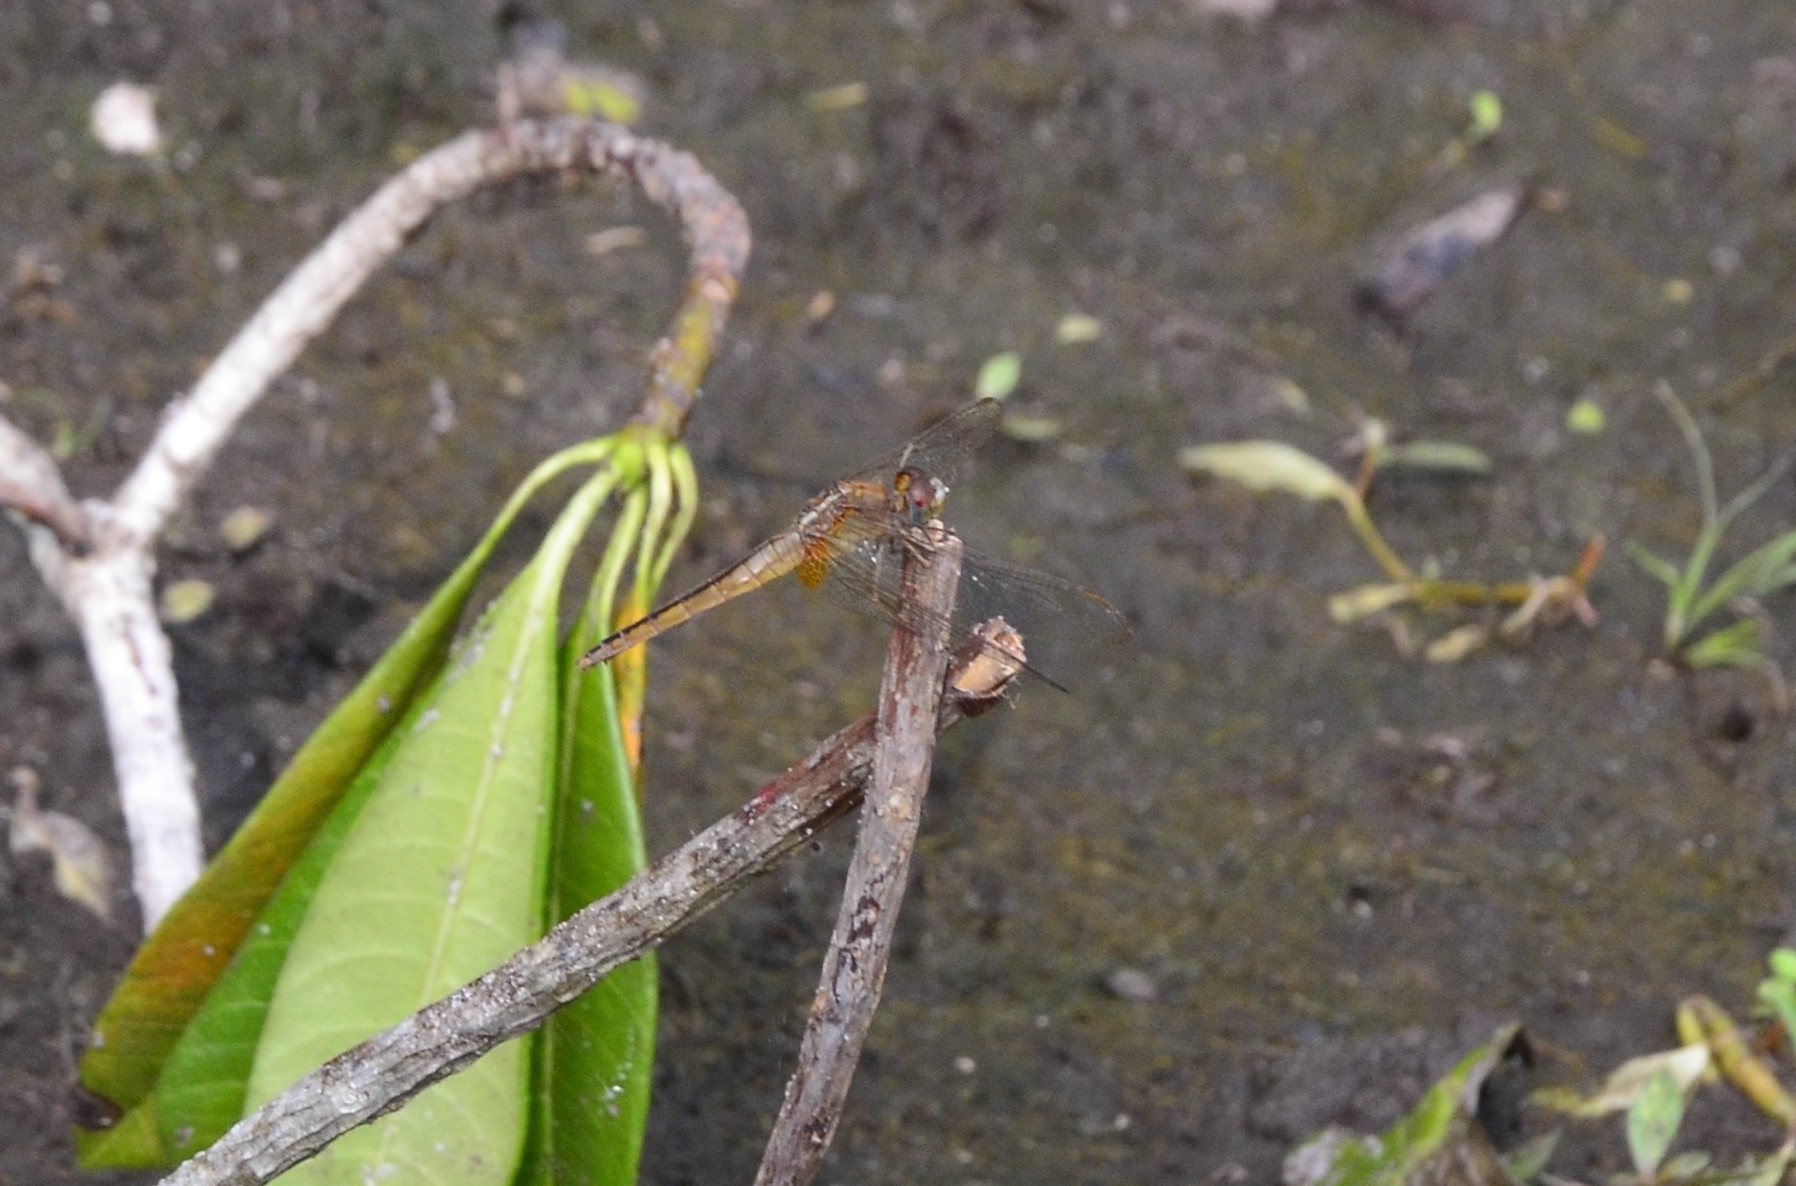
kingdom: Animalia
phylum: Arthropoda
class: Insecta
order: Odonata
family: Libellulidae
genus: Crocothemis
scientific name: Crocothemis servilia
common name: Scarlet skimmer
